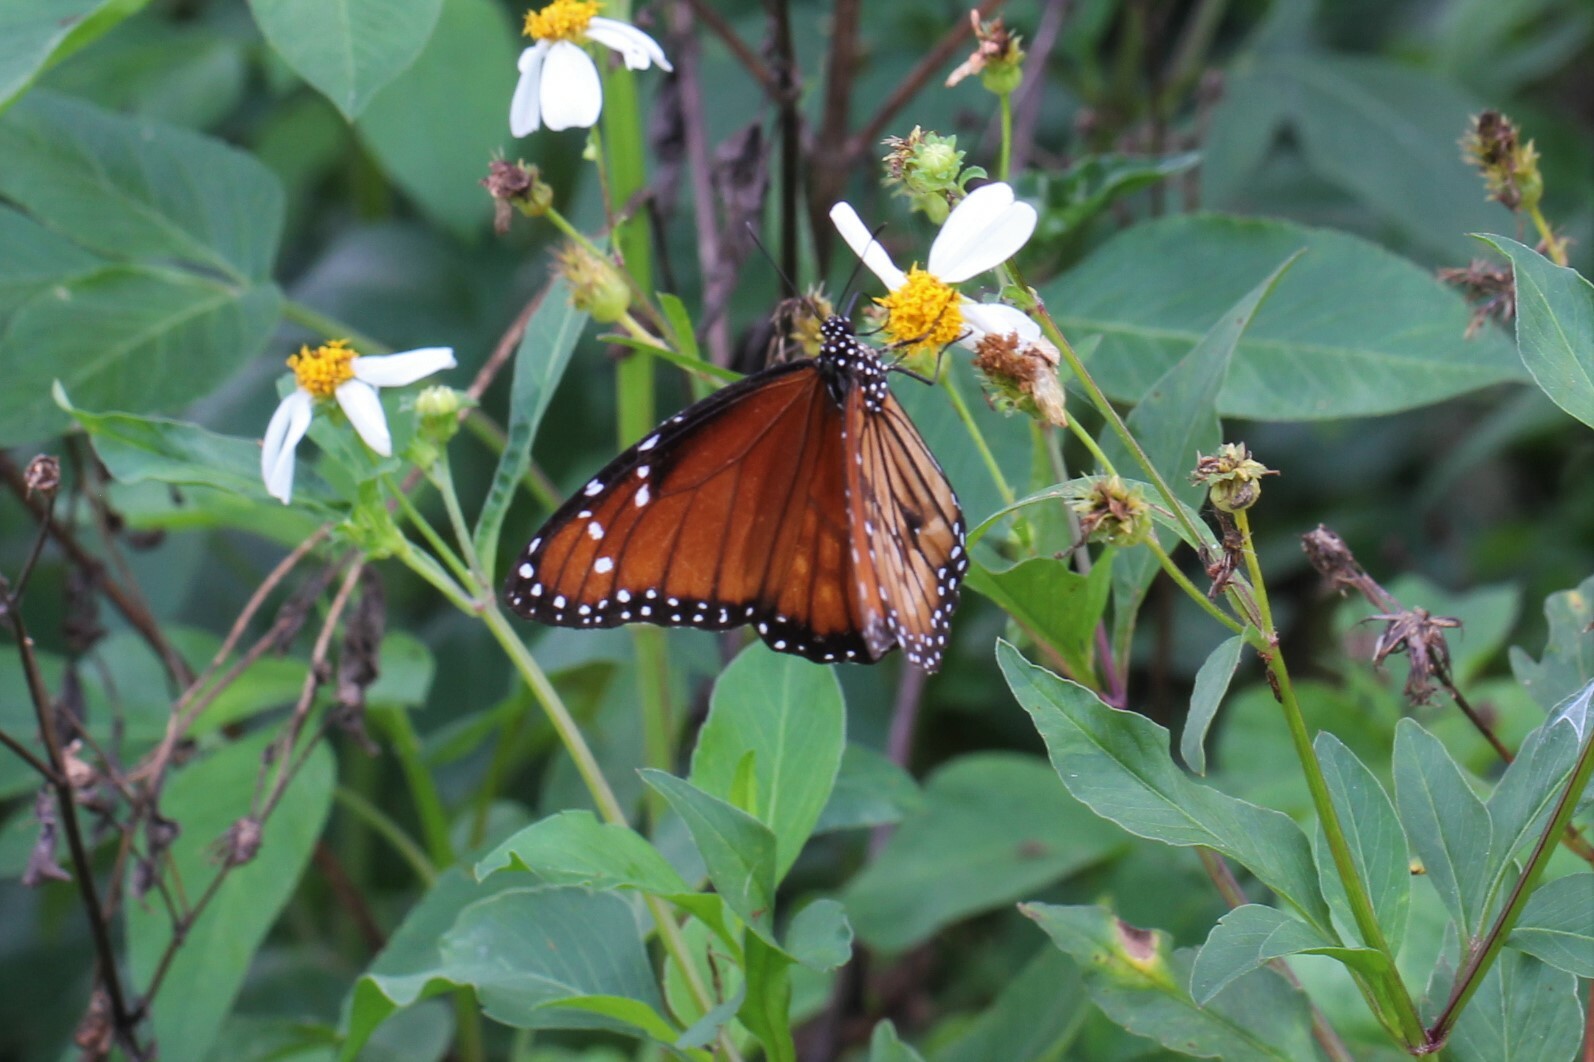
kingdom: Animalia
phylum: Arthropoda
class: Insecta
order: Lepidoptera
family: Nymphalidae
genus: Danaus
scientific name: Danaus eresimus
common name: Soldier
